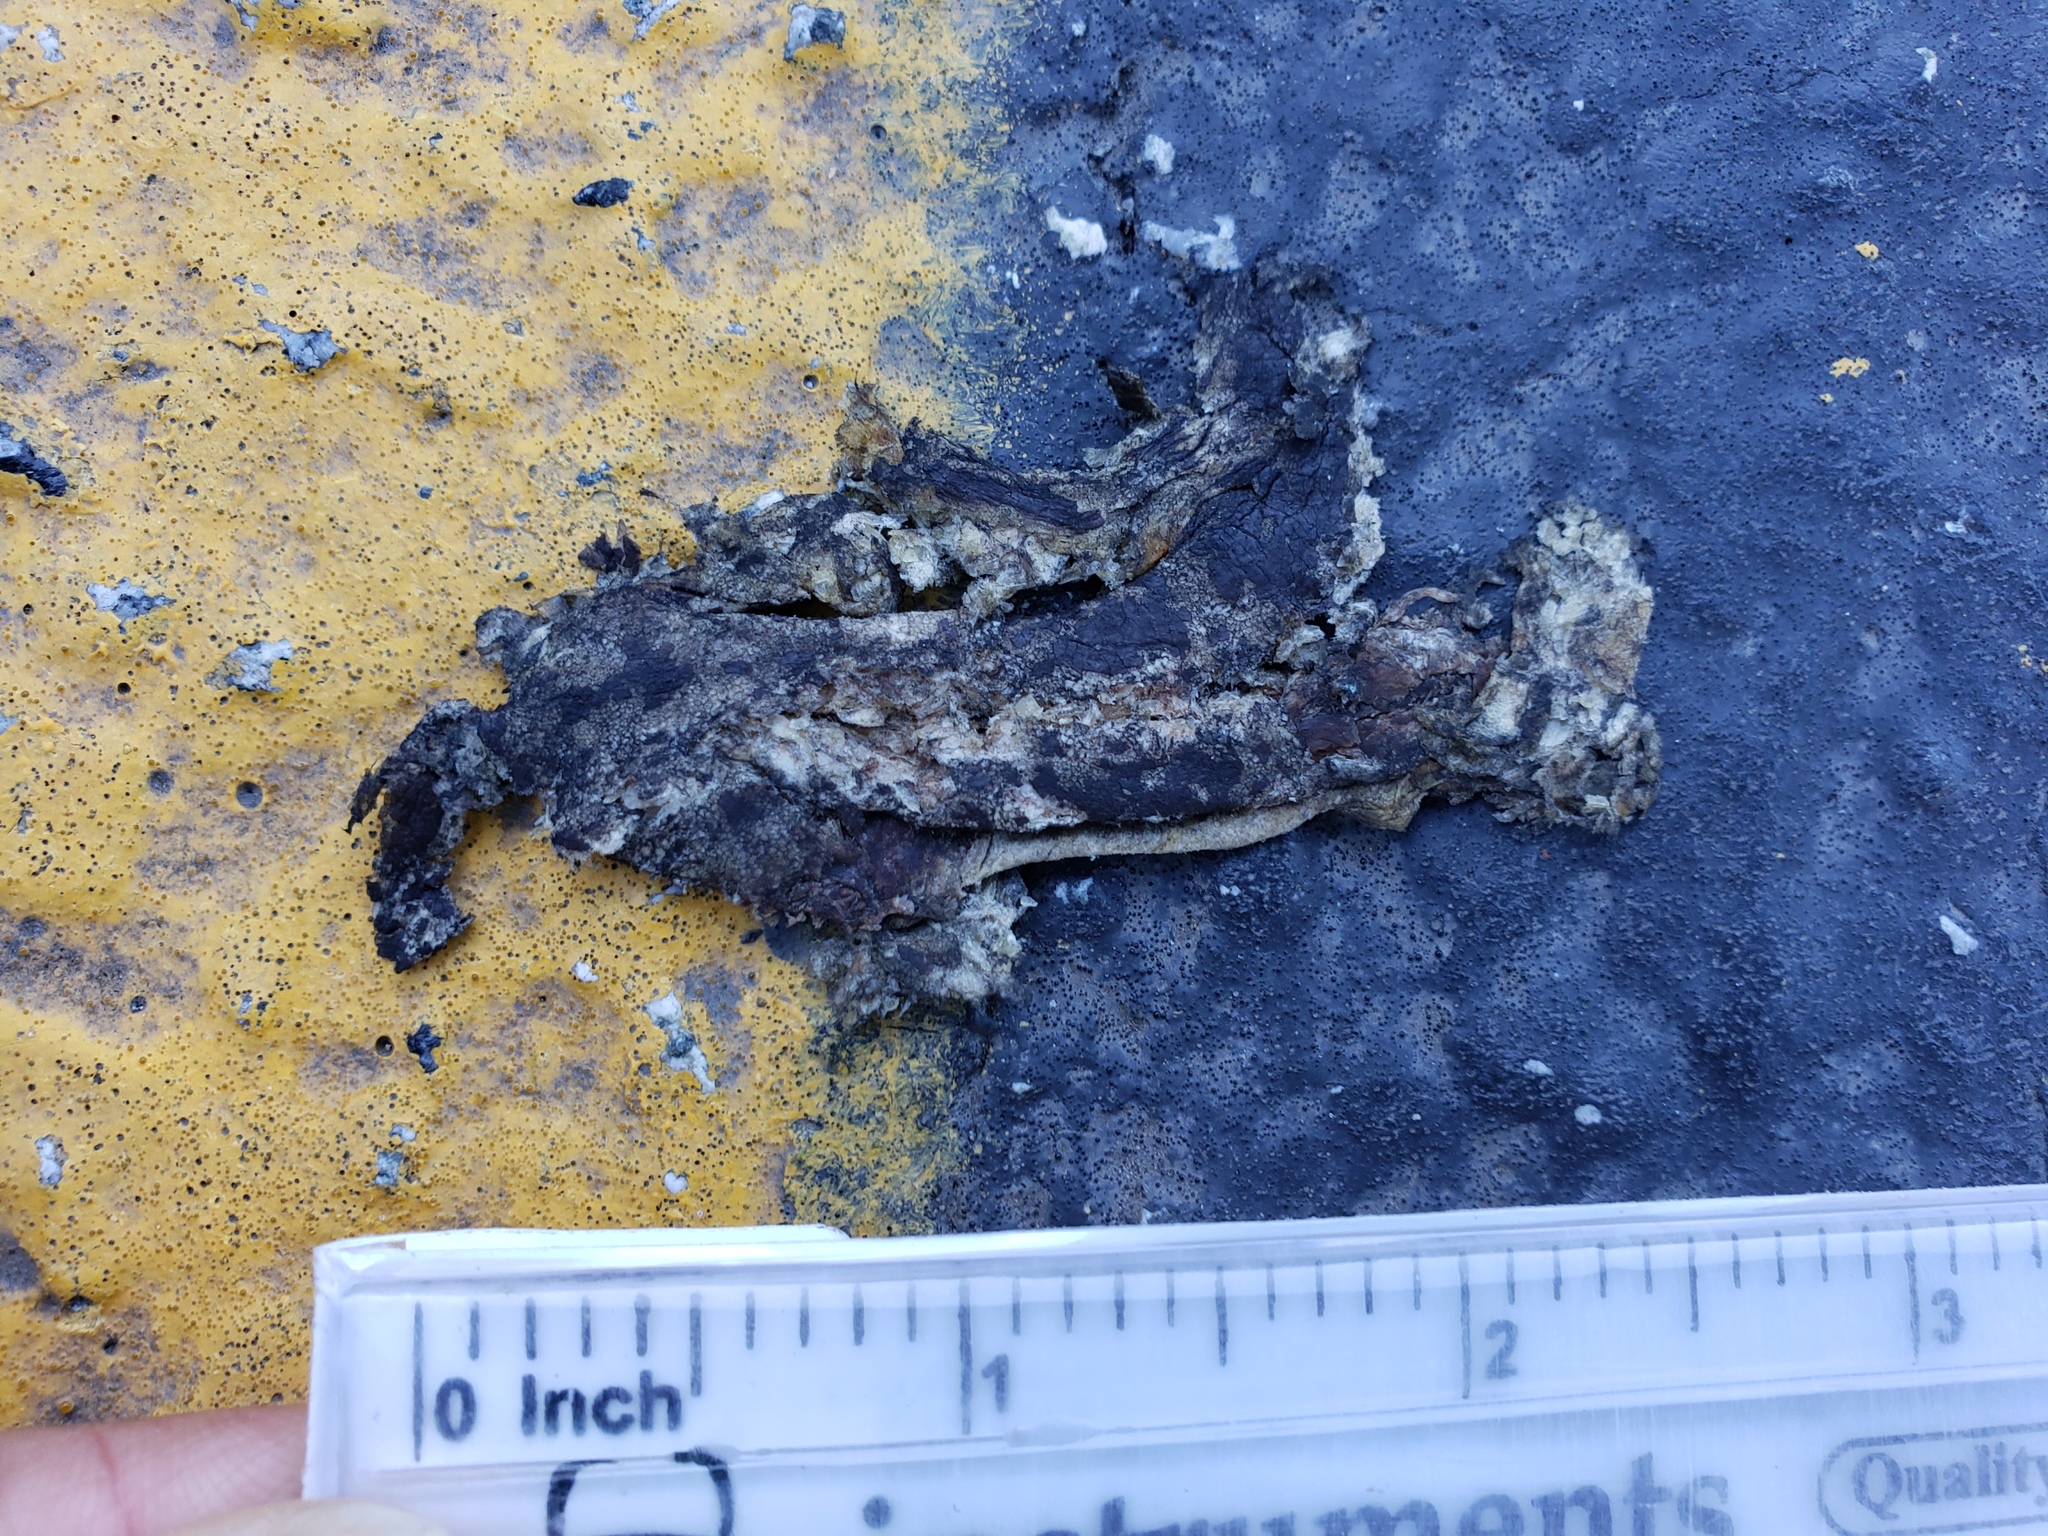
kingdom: Animalia
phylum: Chordata
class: Amphibia
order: Caudata
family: Salamandridae
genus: Taricha
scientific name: Taricha
